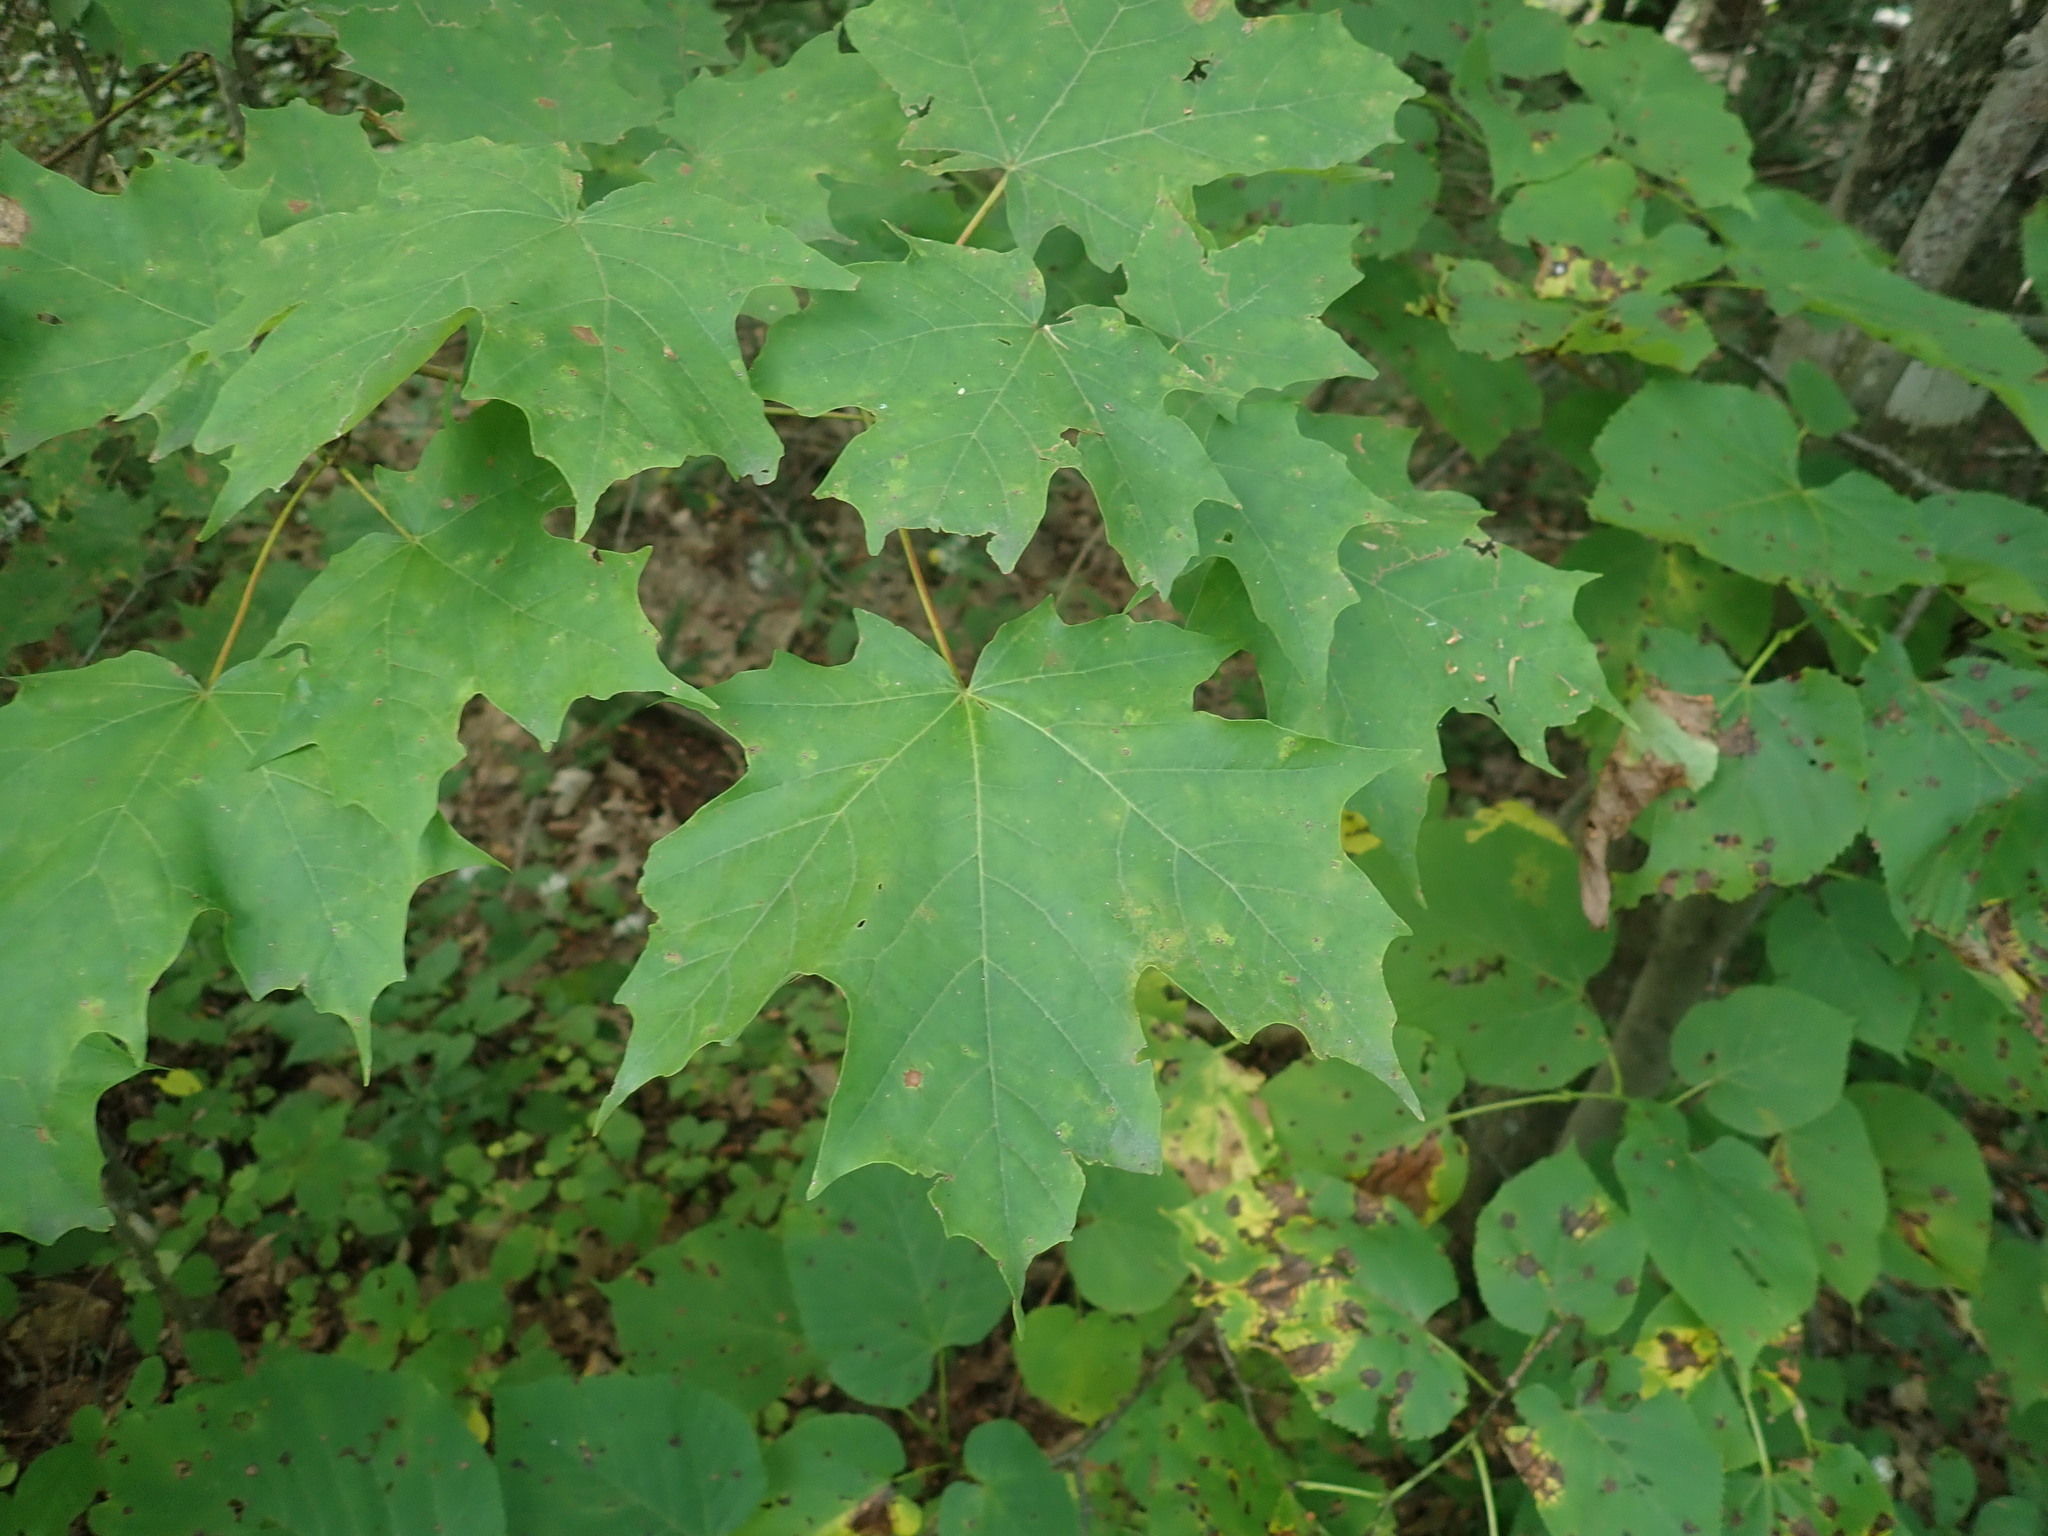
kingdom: Plantae
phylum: Tracheophyta
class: Magnoliopsida
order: Sapindales
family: Sapindaceae
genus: Acer
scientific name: Acer saccharum
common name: Sugar maple
